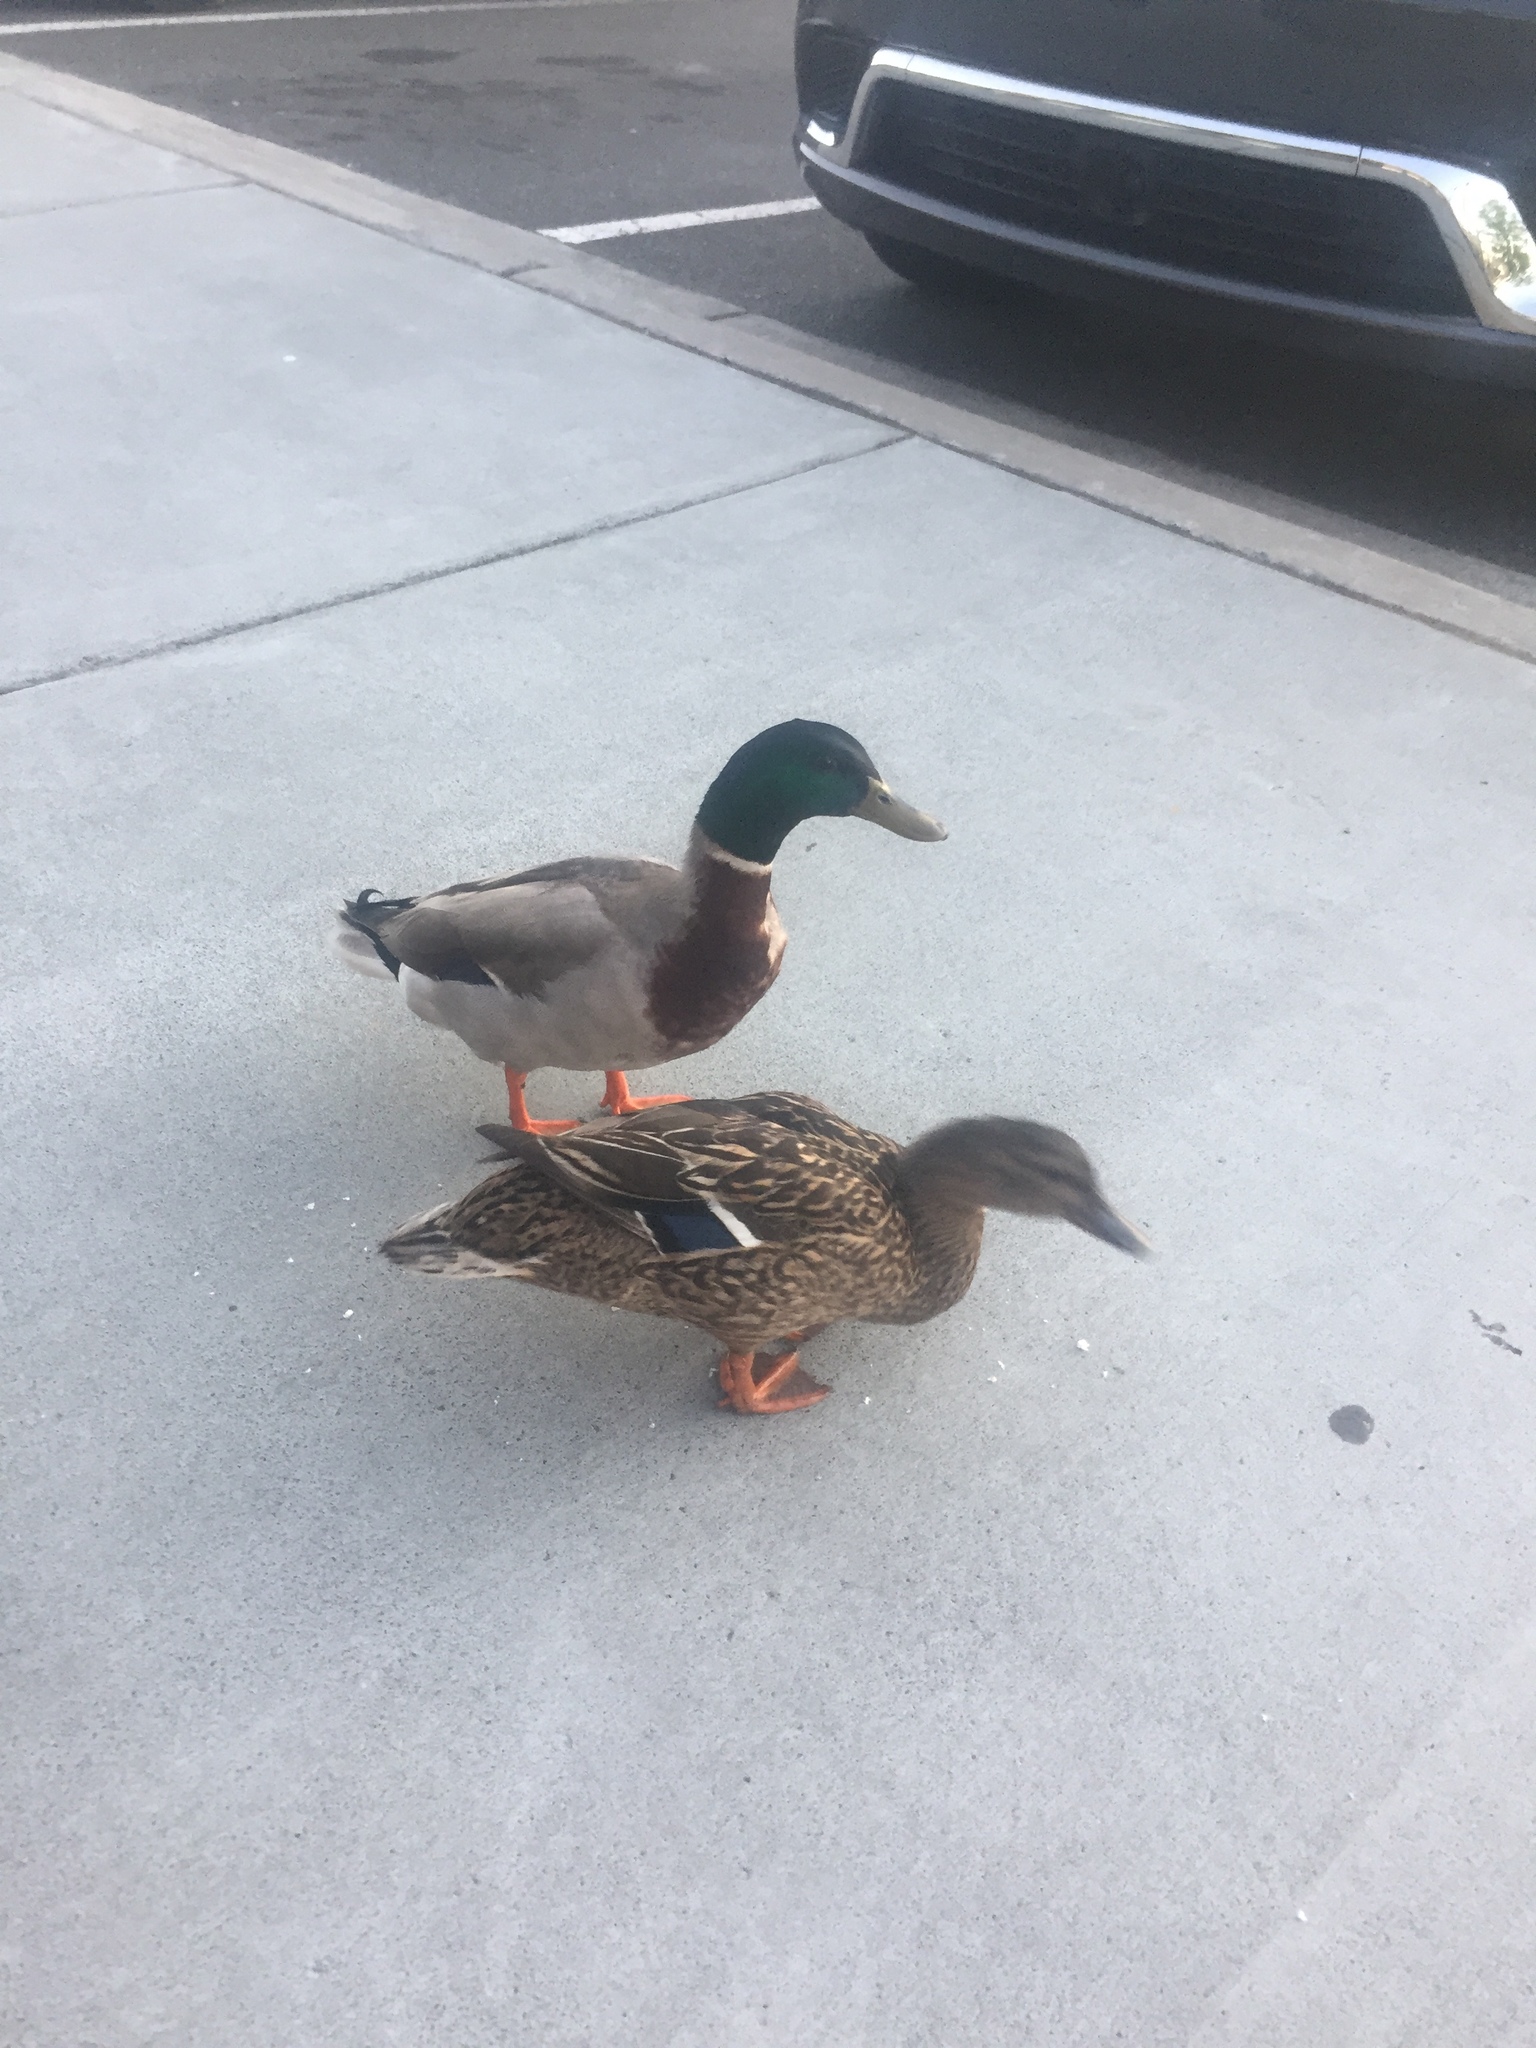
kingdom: Animalia
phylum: Chordata
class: Aves
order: Anseriformes
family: Anatidae
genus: Anas
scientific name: Anas platyrhynchos
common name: Mallard
